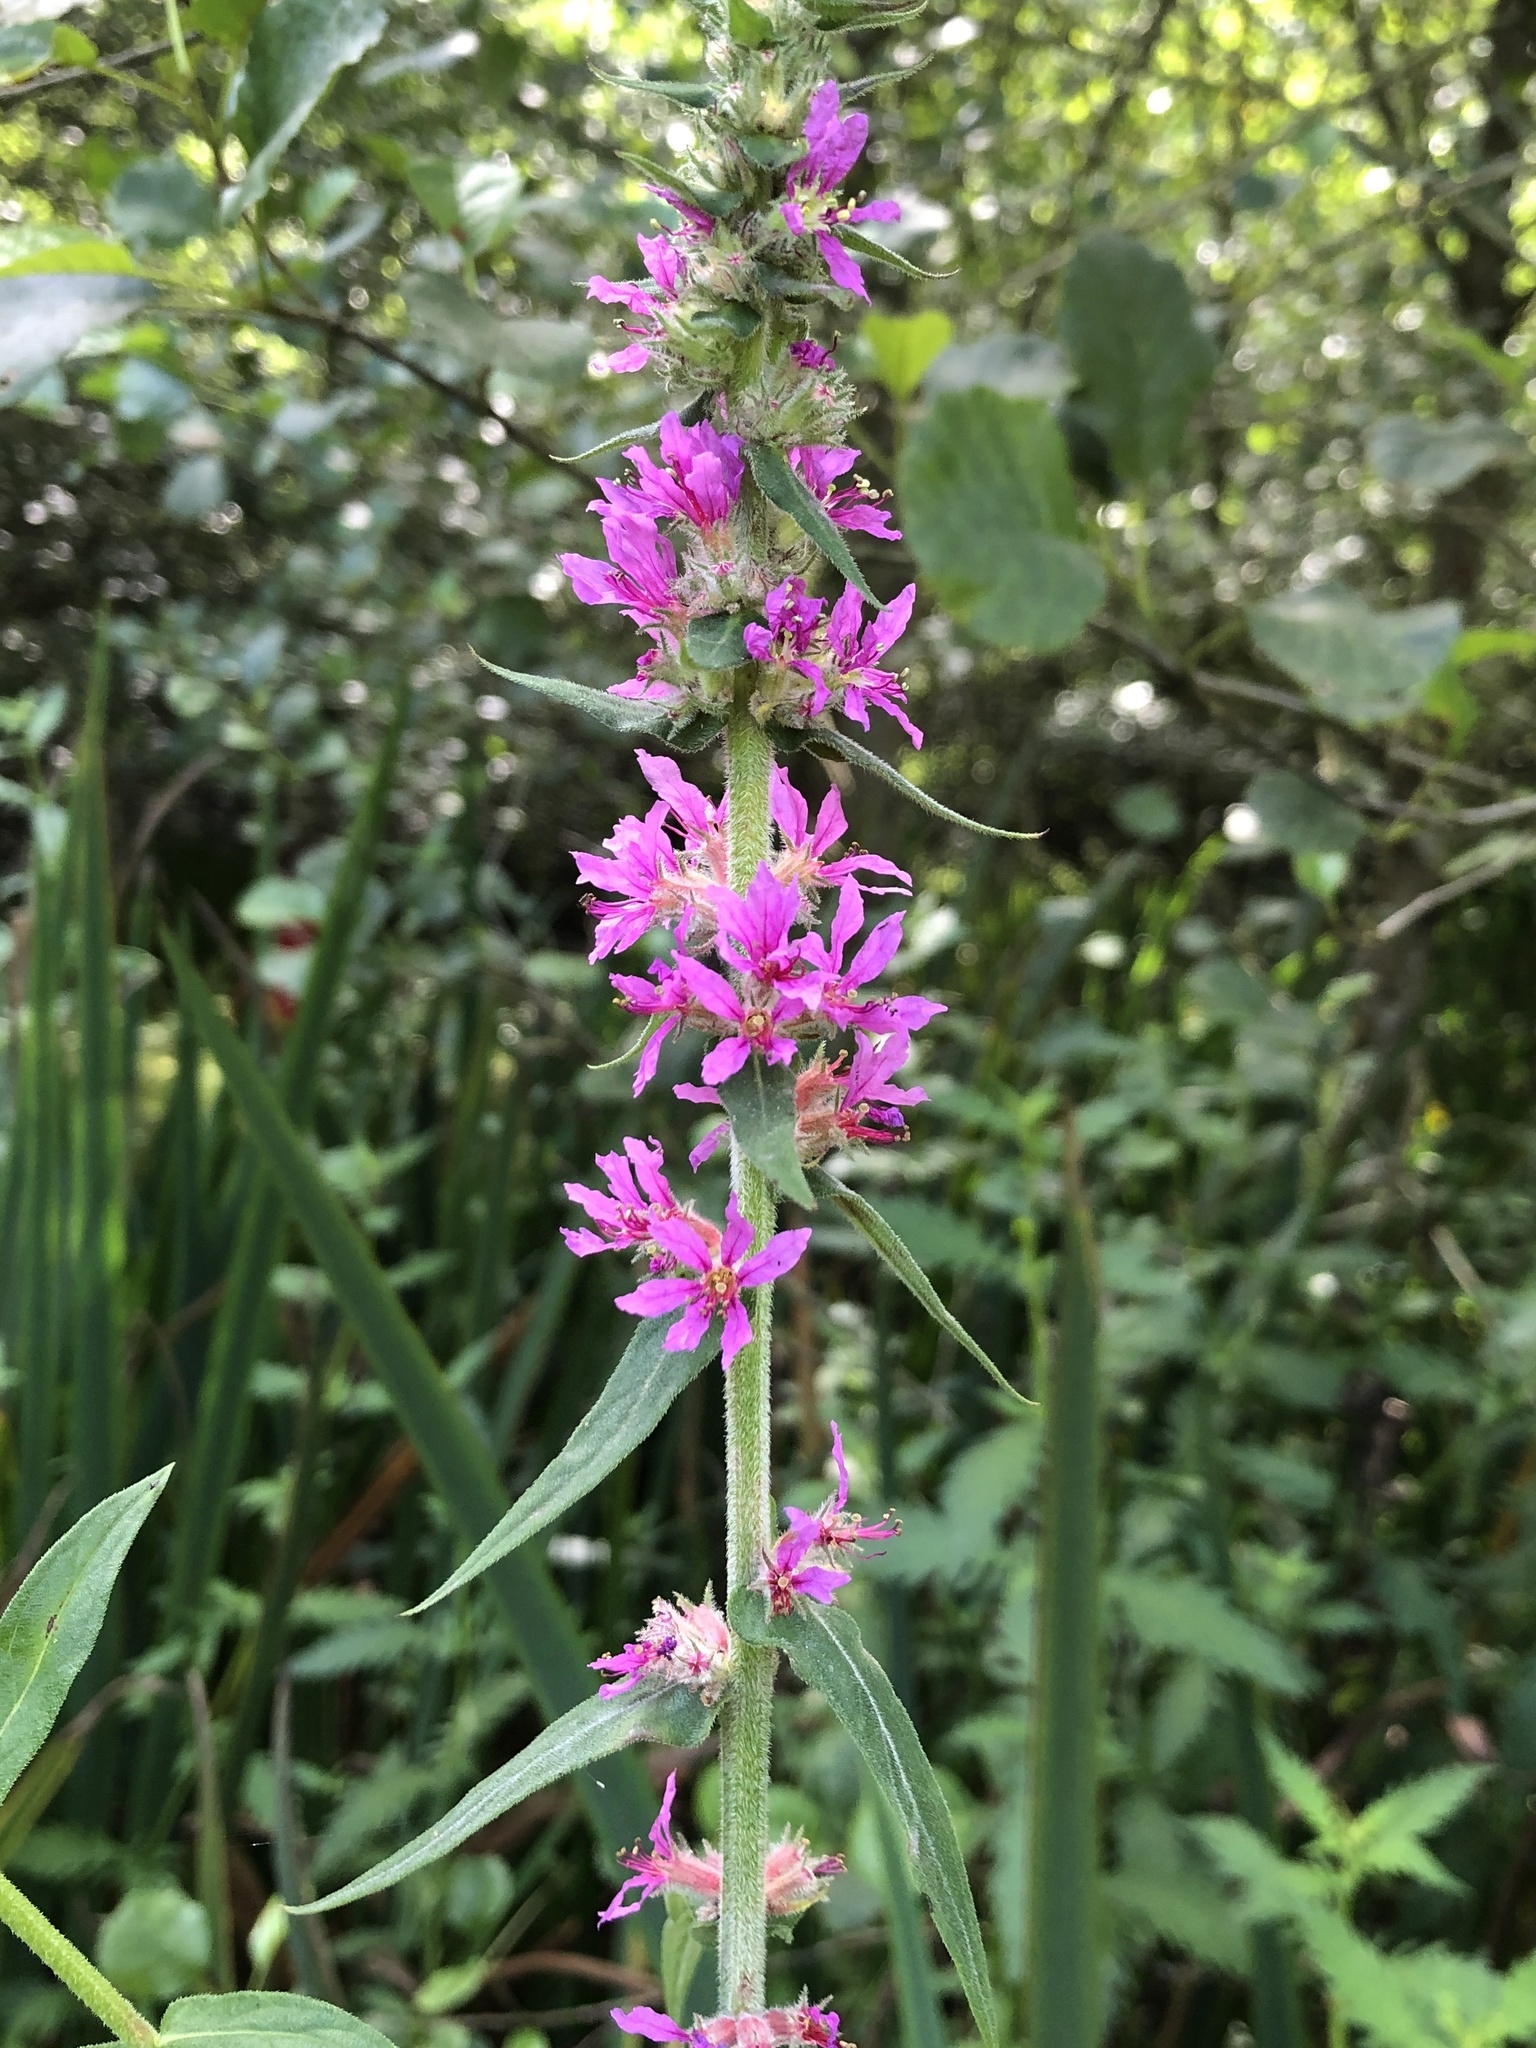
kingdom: Plantae
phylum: Tracheophyta
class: Magnoliopsida
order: Myrtales
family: Lythraceae
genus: Lythrum
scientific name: Lythrum salicaria
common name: Purple loosestrife
